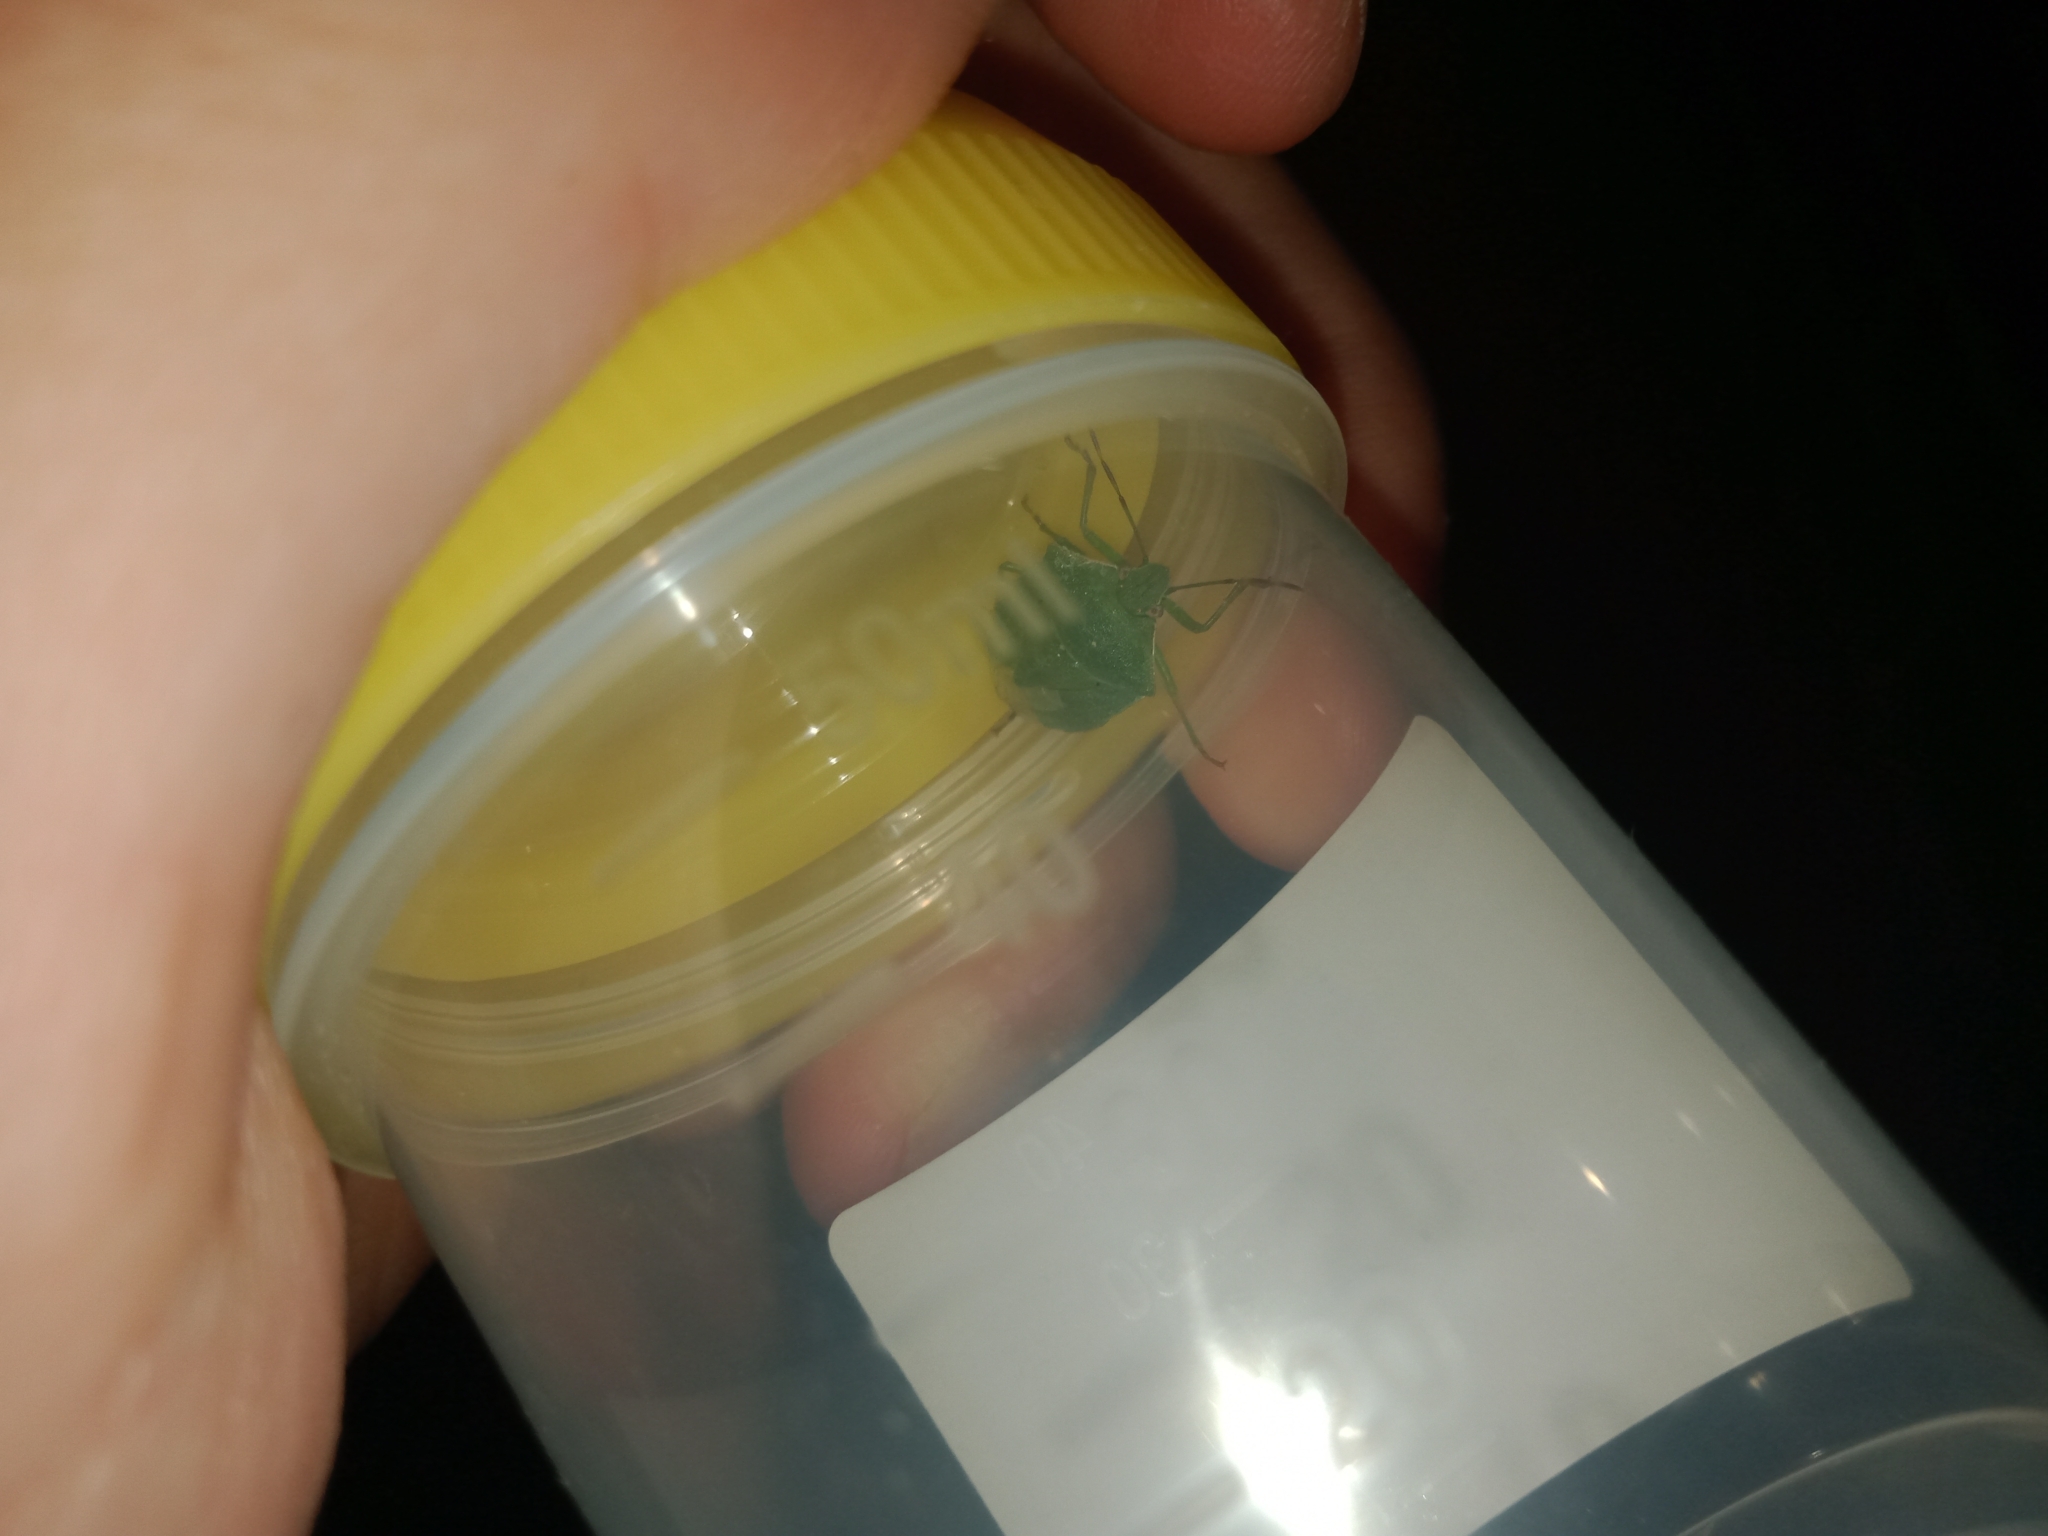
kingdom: Animalia
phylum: Arthropoda
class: Insecta
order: Hemiptera
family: Pentatomidae
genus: Nezara
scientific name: Nezara viridula
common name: Southern green stink bug
